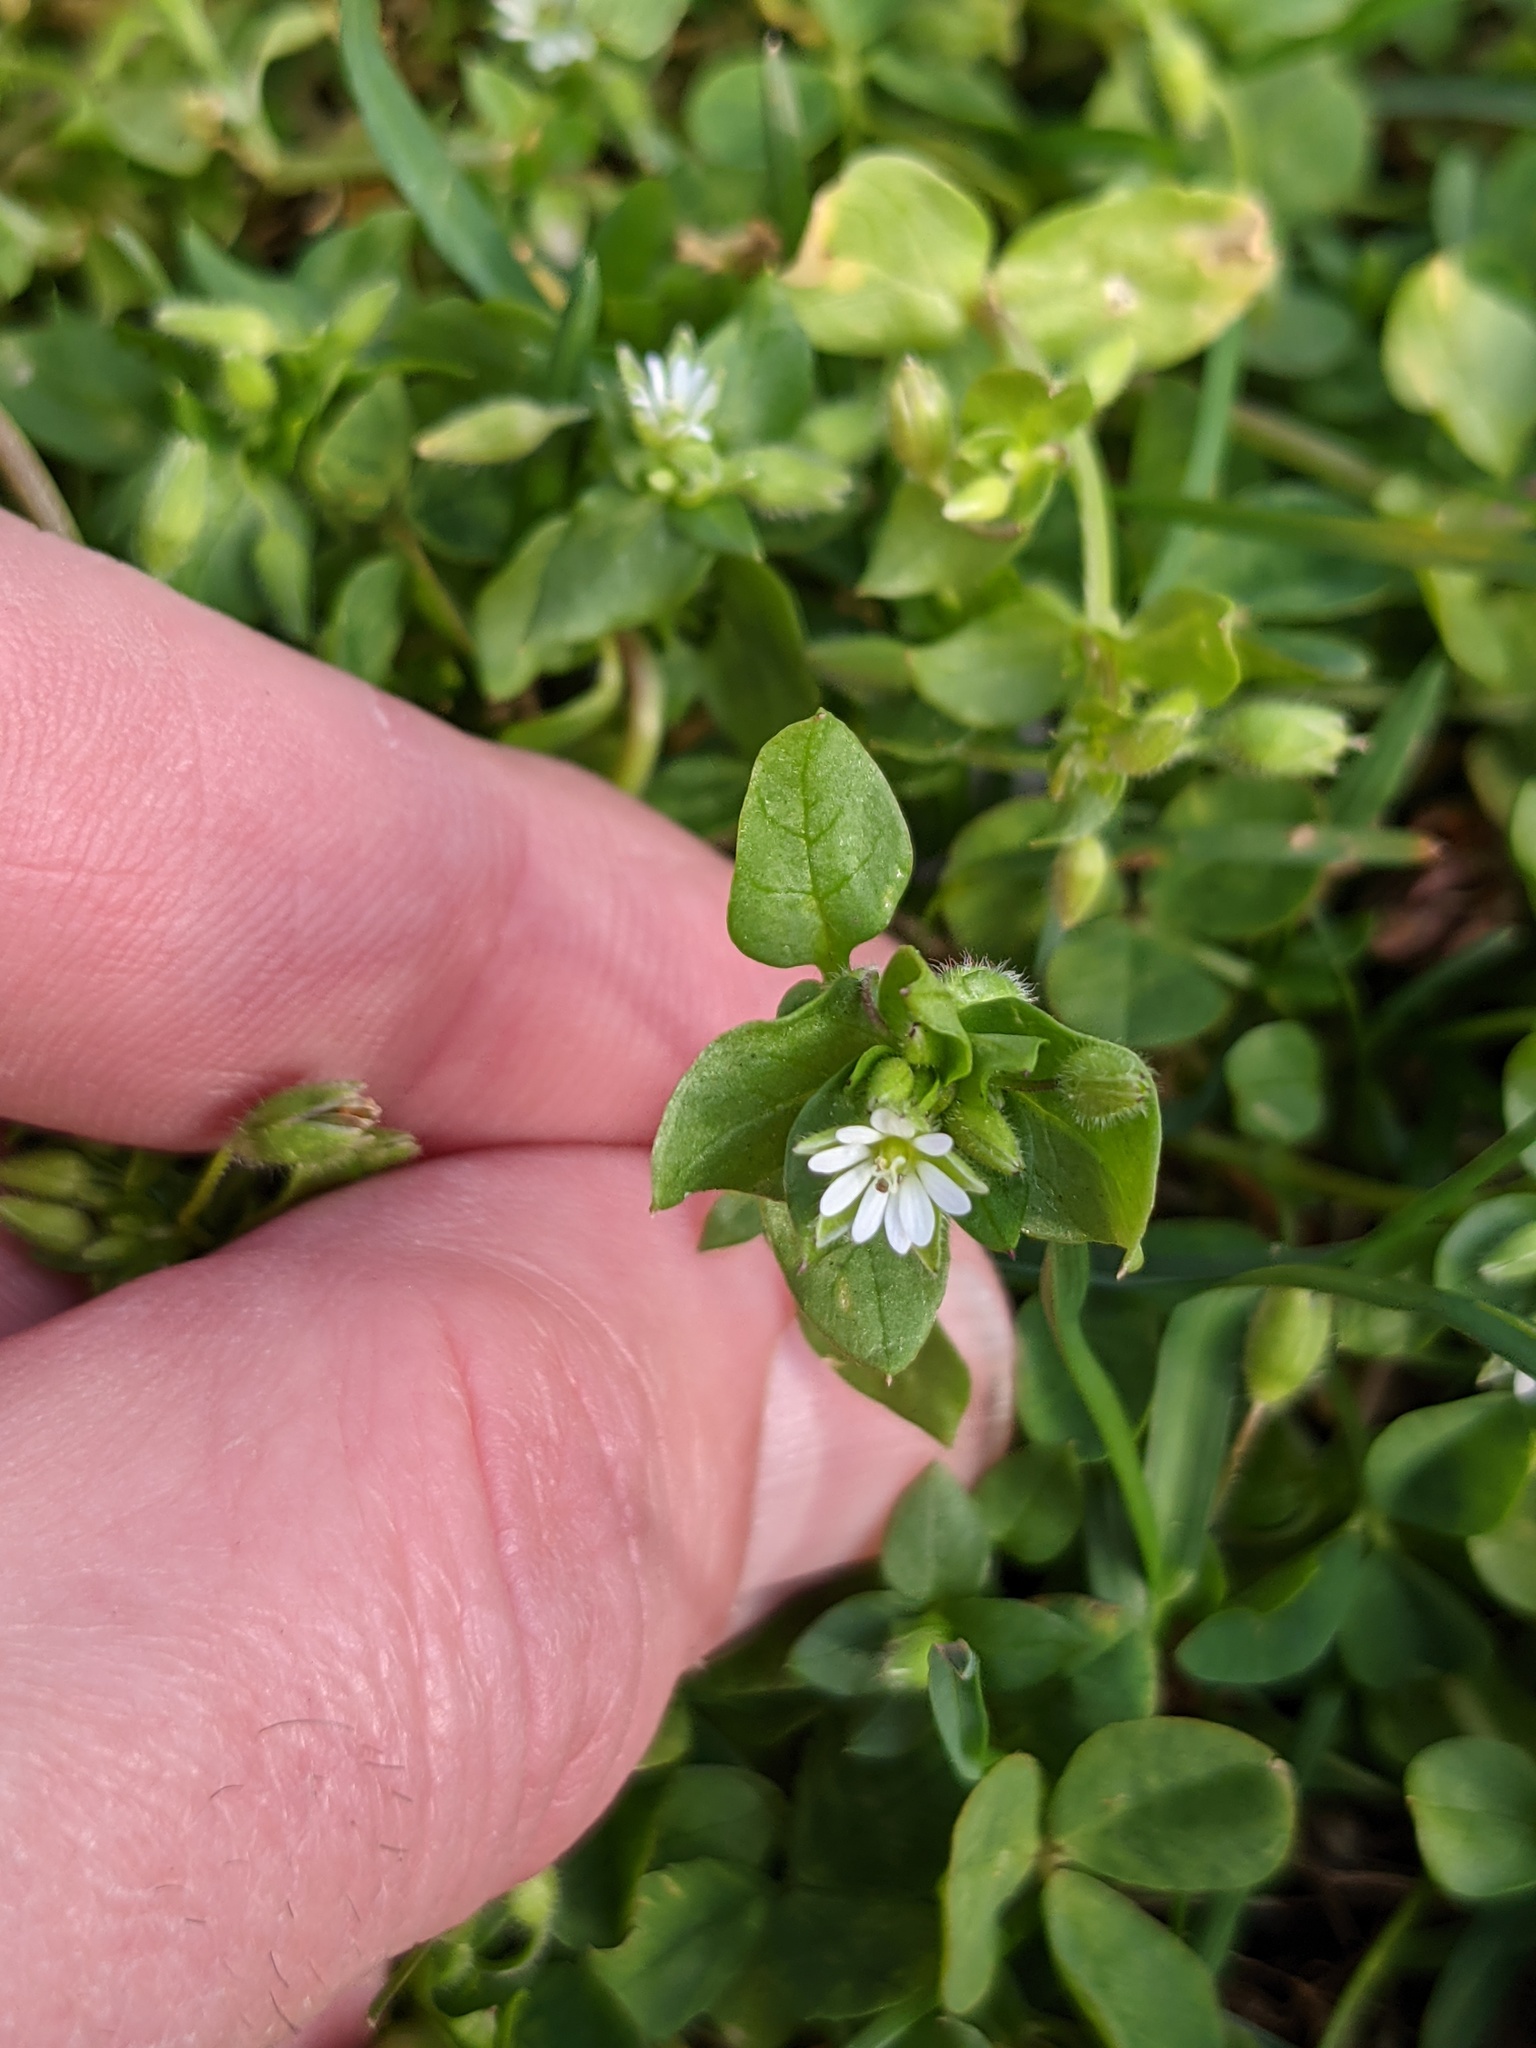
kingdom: Plantae
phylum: Tracheophyta
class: Magnoliopsida
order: Caryophyllales
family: Caryophyllaceae
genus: Stellaria
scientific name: Stellaria media
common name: Common chickweed
